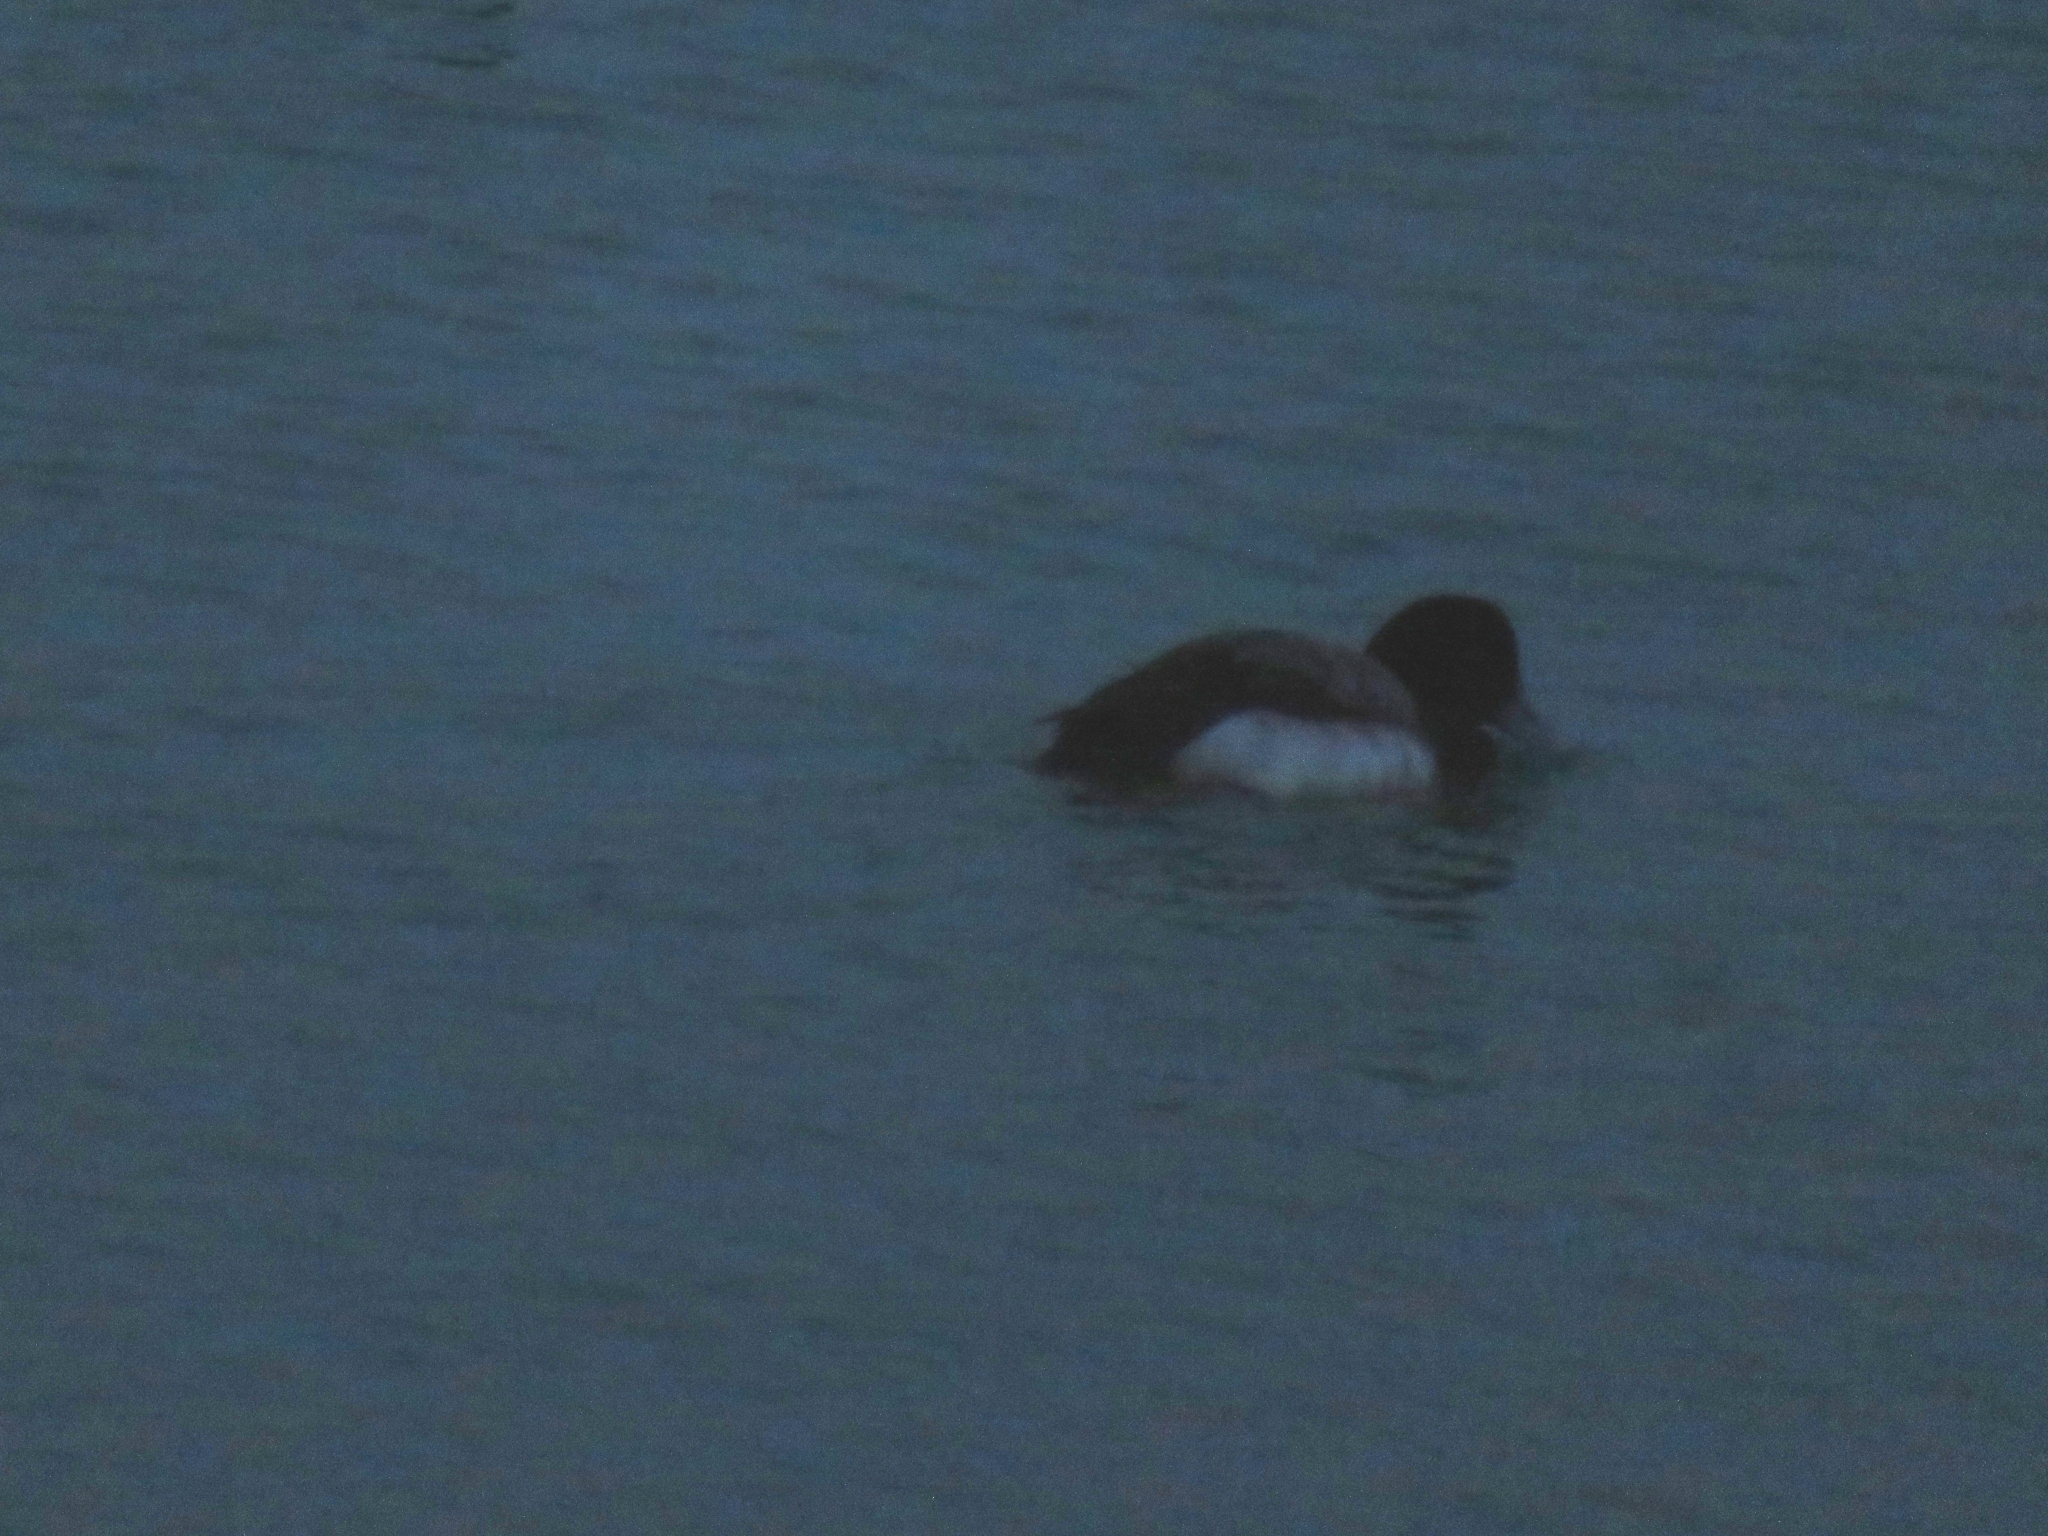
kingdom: Animalia
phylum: Chordata
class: Aves
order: Anseriformes
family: Anatidae
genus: Aythya
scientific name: Aythya marila
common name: Greater scaup
